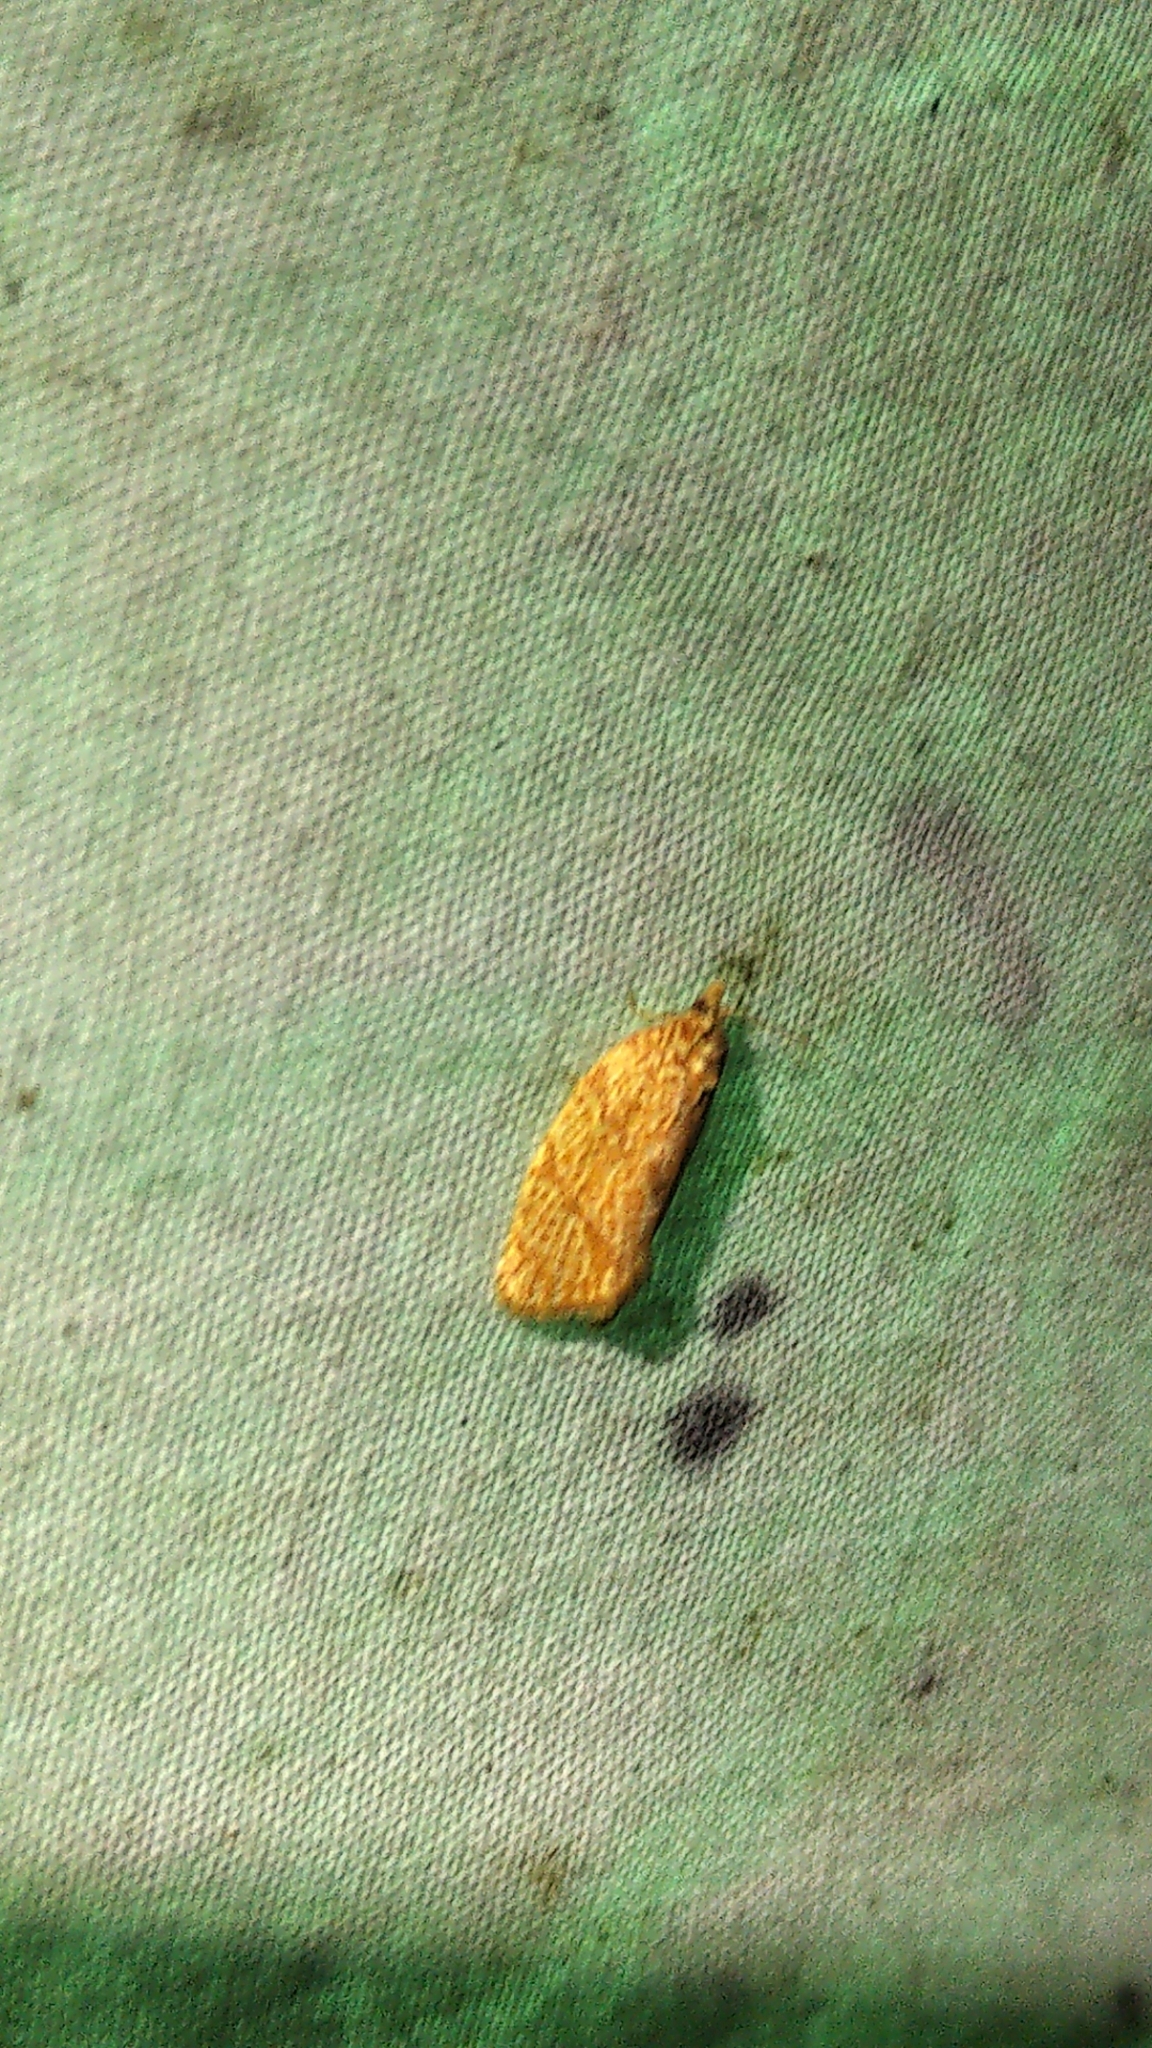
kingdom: Animalia
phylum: Arthropoda
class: Insecta
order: Lepidoptera
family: Tortricidae
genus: Argyrotaenia
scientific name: Argyrotaenia quadrifasciana
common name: Four-lined leafroller moth
